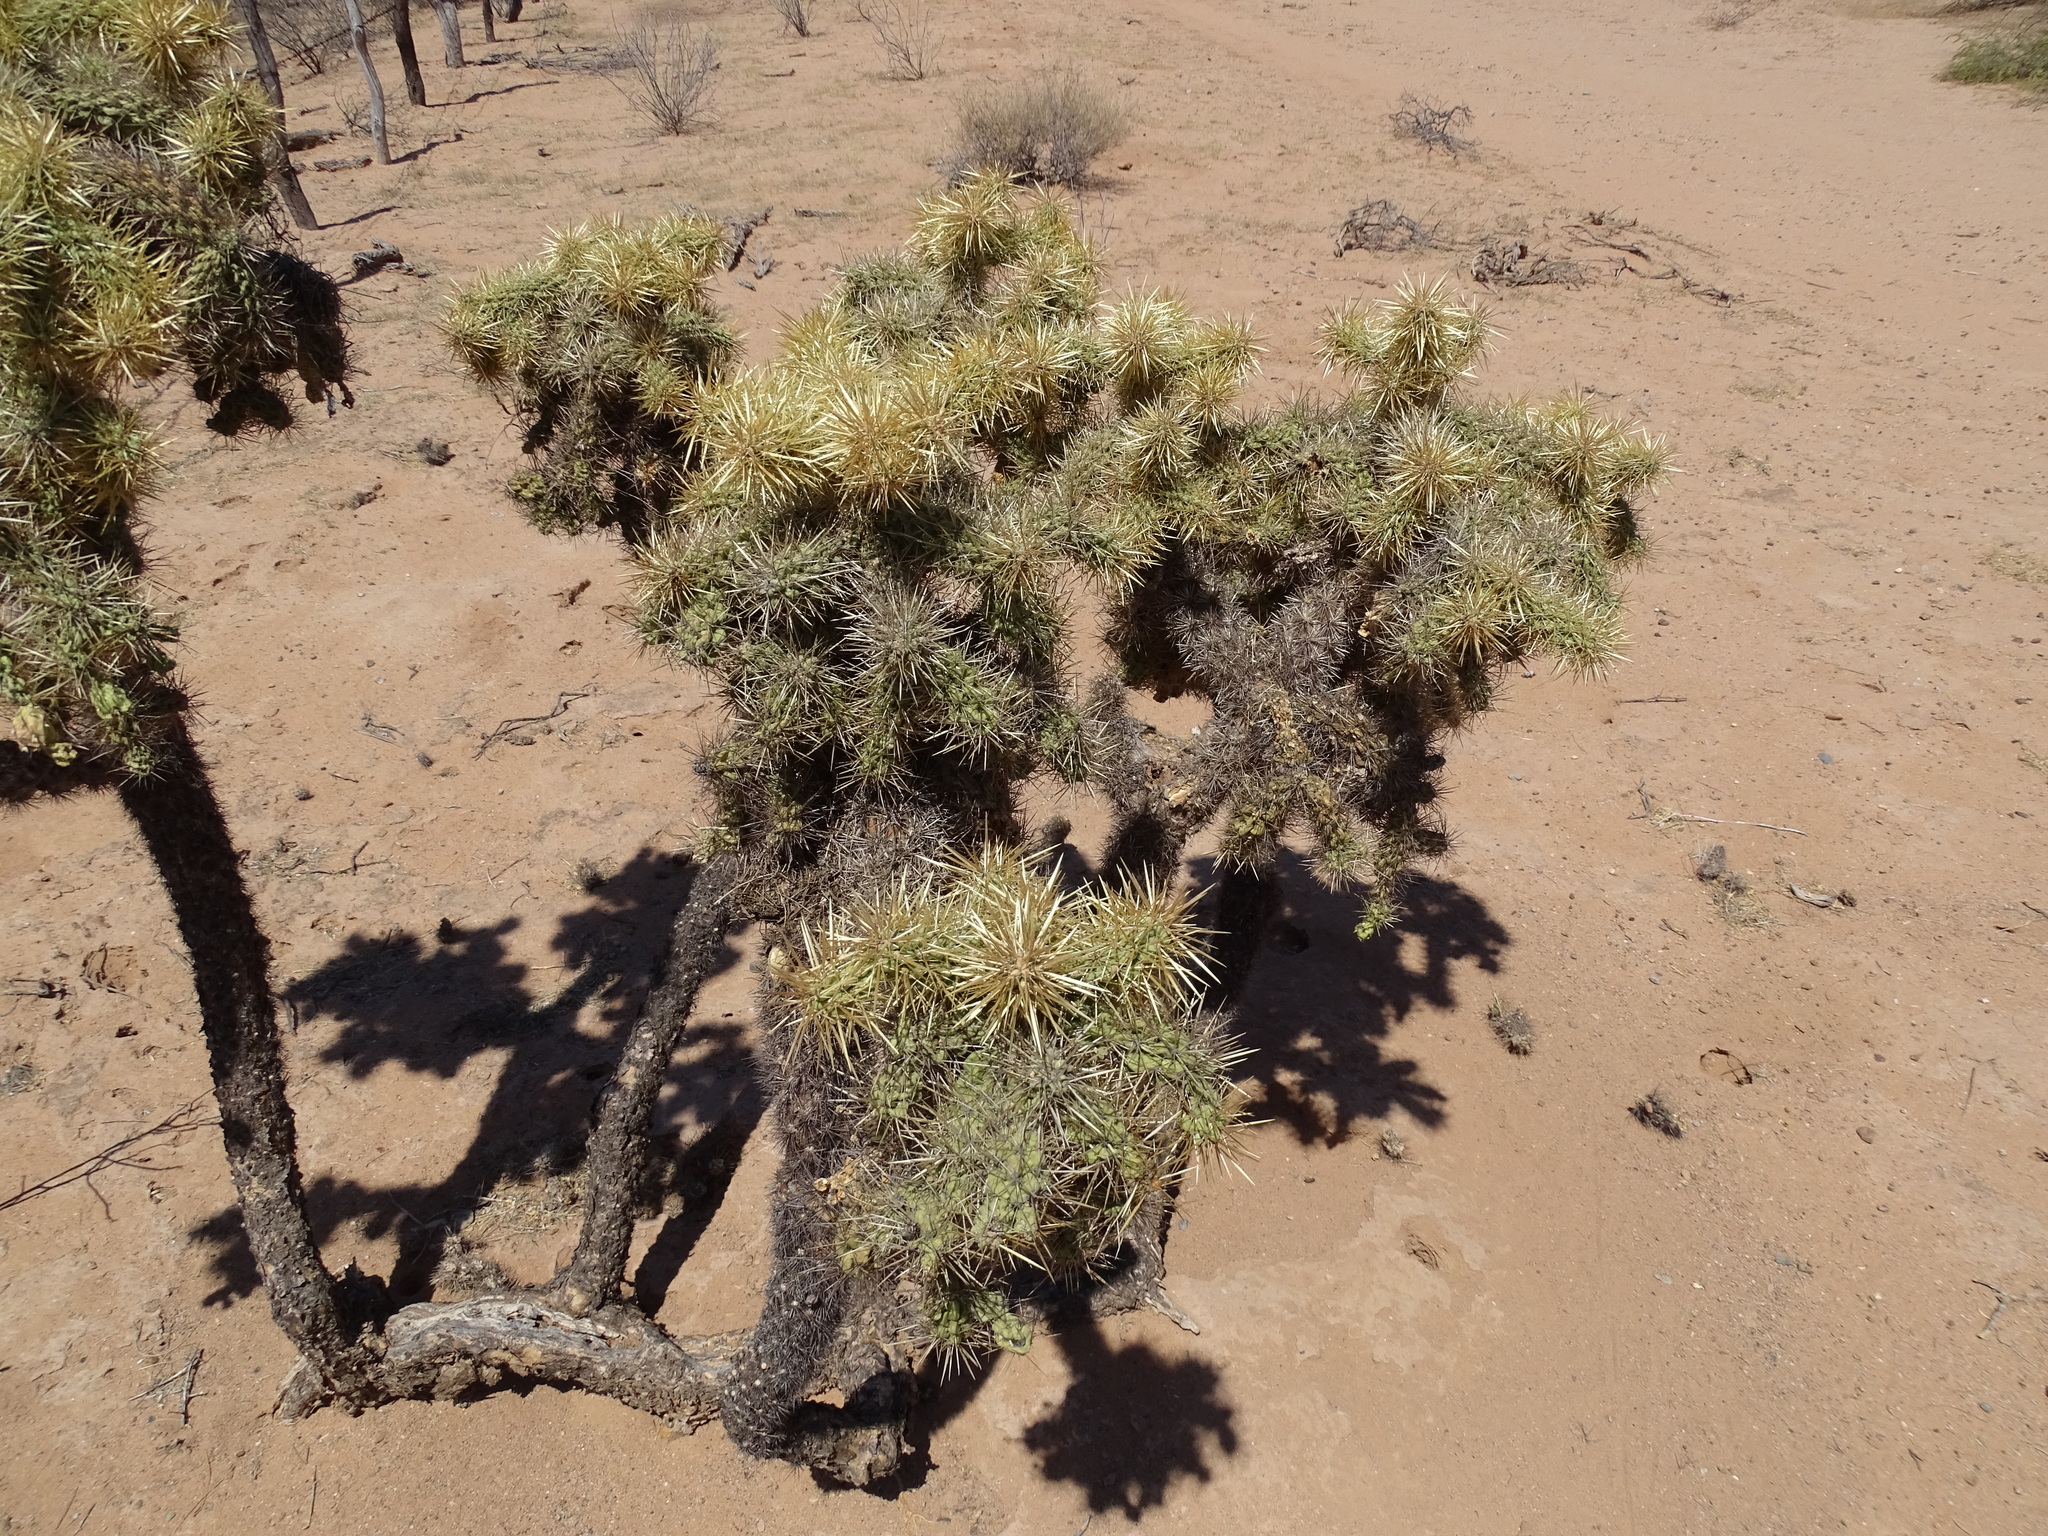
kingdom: Plantae
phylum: Tracheophyta
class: Magnoliopsida
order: Caryophyllales
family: Cactaceae
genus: Cylindropuntia
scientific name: Cylindropuntia fulgida
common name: Jumping cholla
